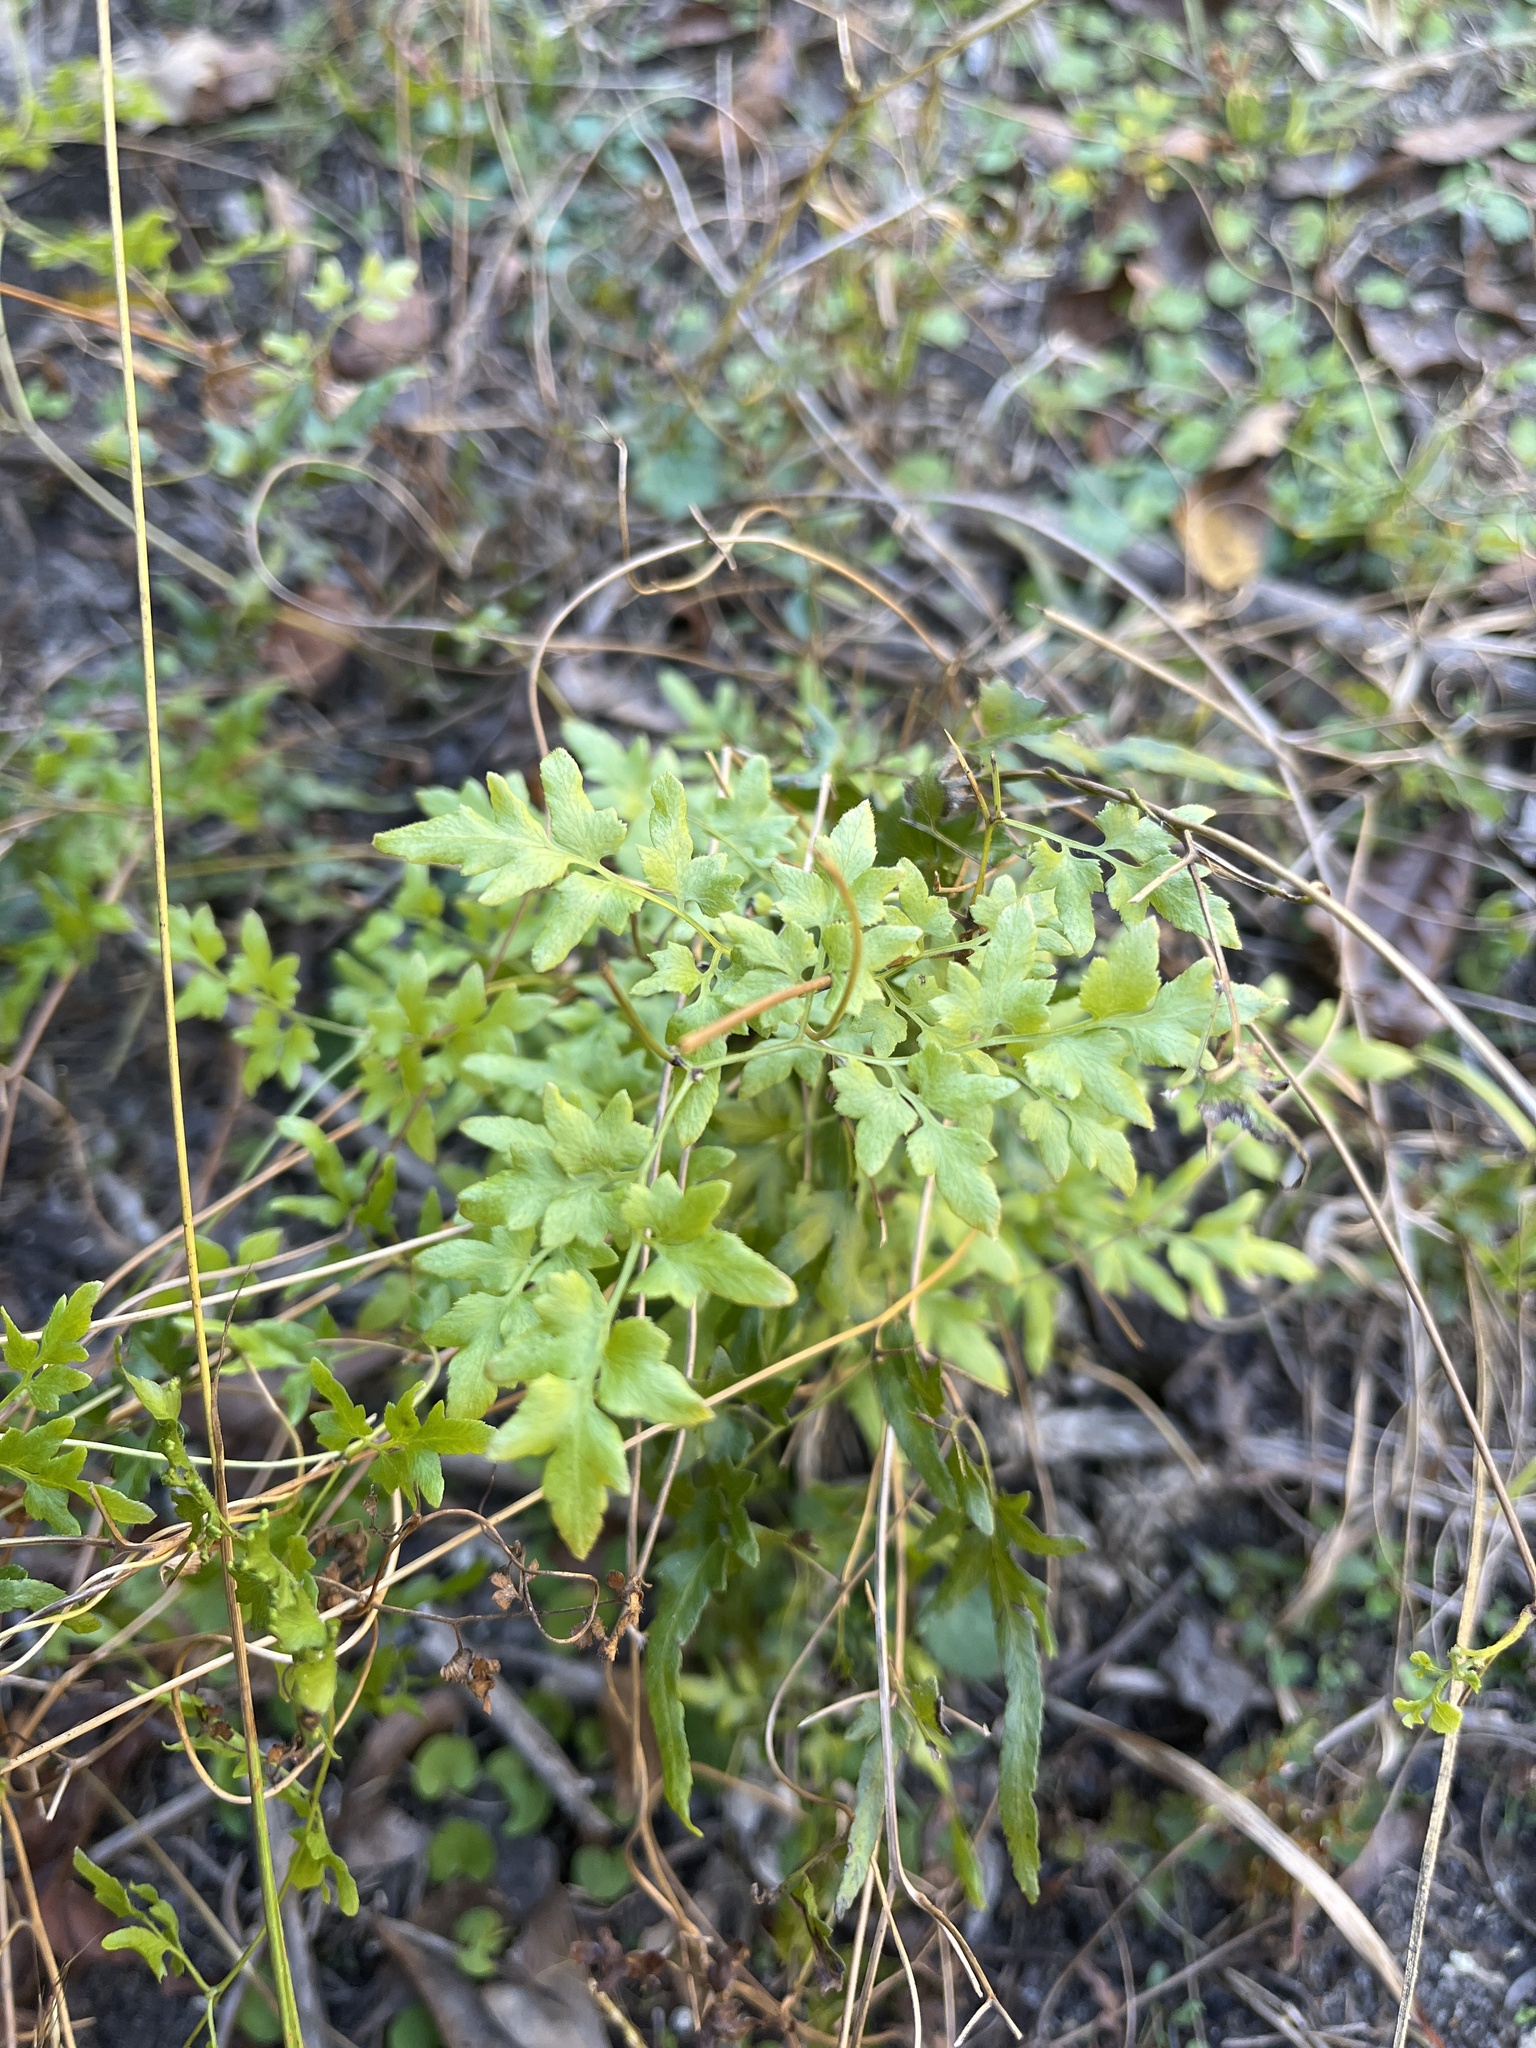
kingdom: Plantae
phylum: Tracheophyta
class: Polypodiopsida
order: Schizaeales
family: Lygodiaceae
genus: Lygodium
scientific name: Lygodium japonicum
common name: Japanese climbing fern
